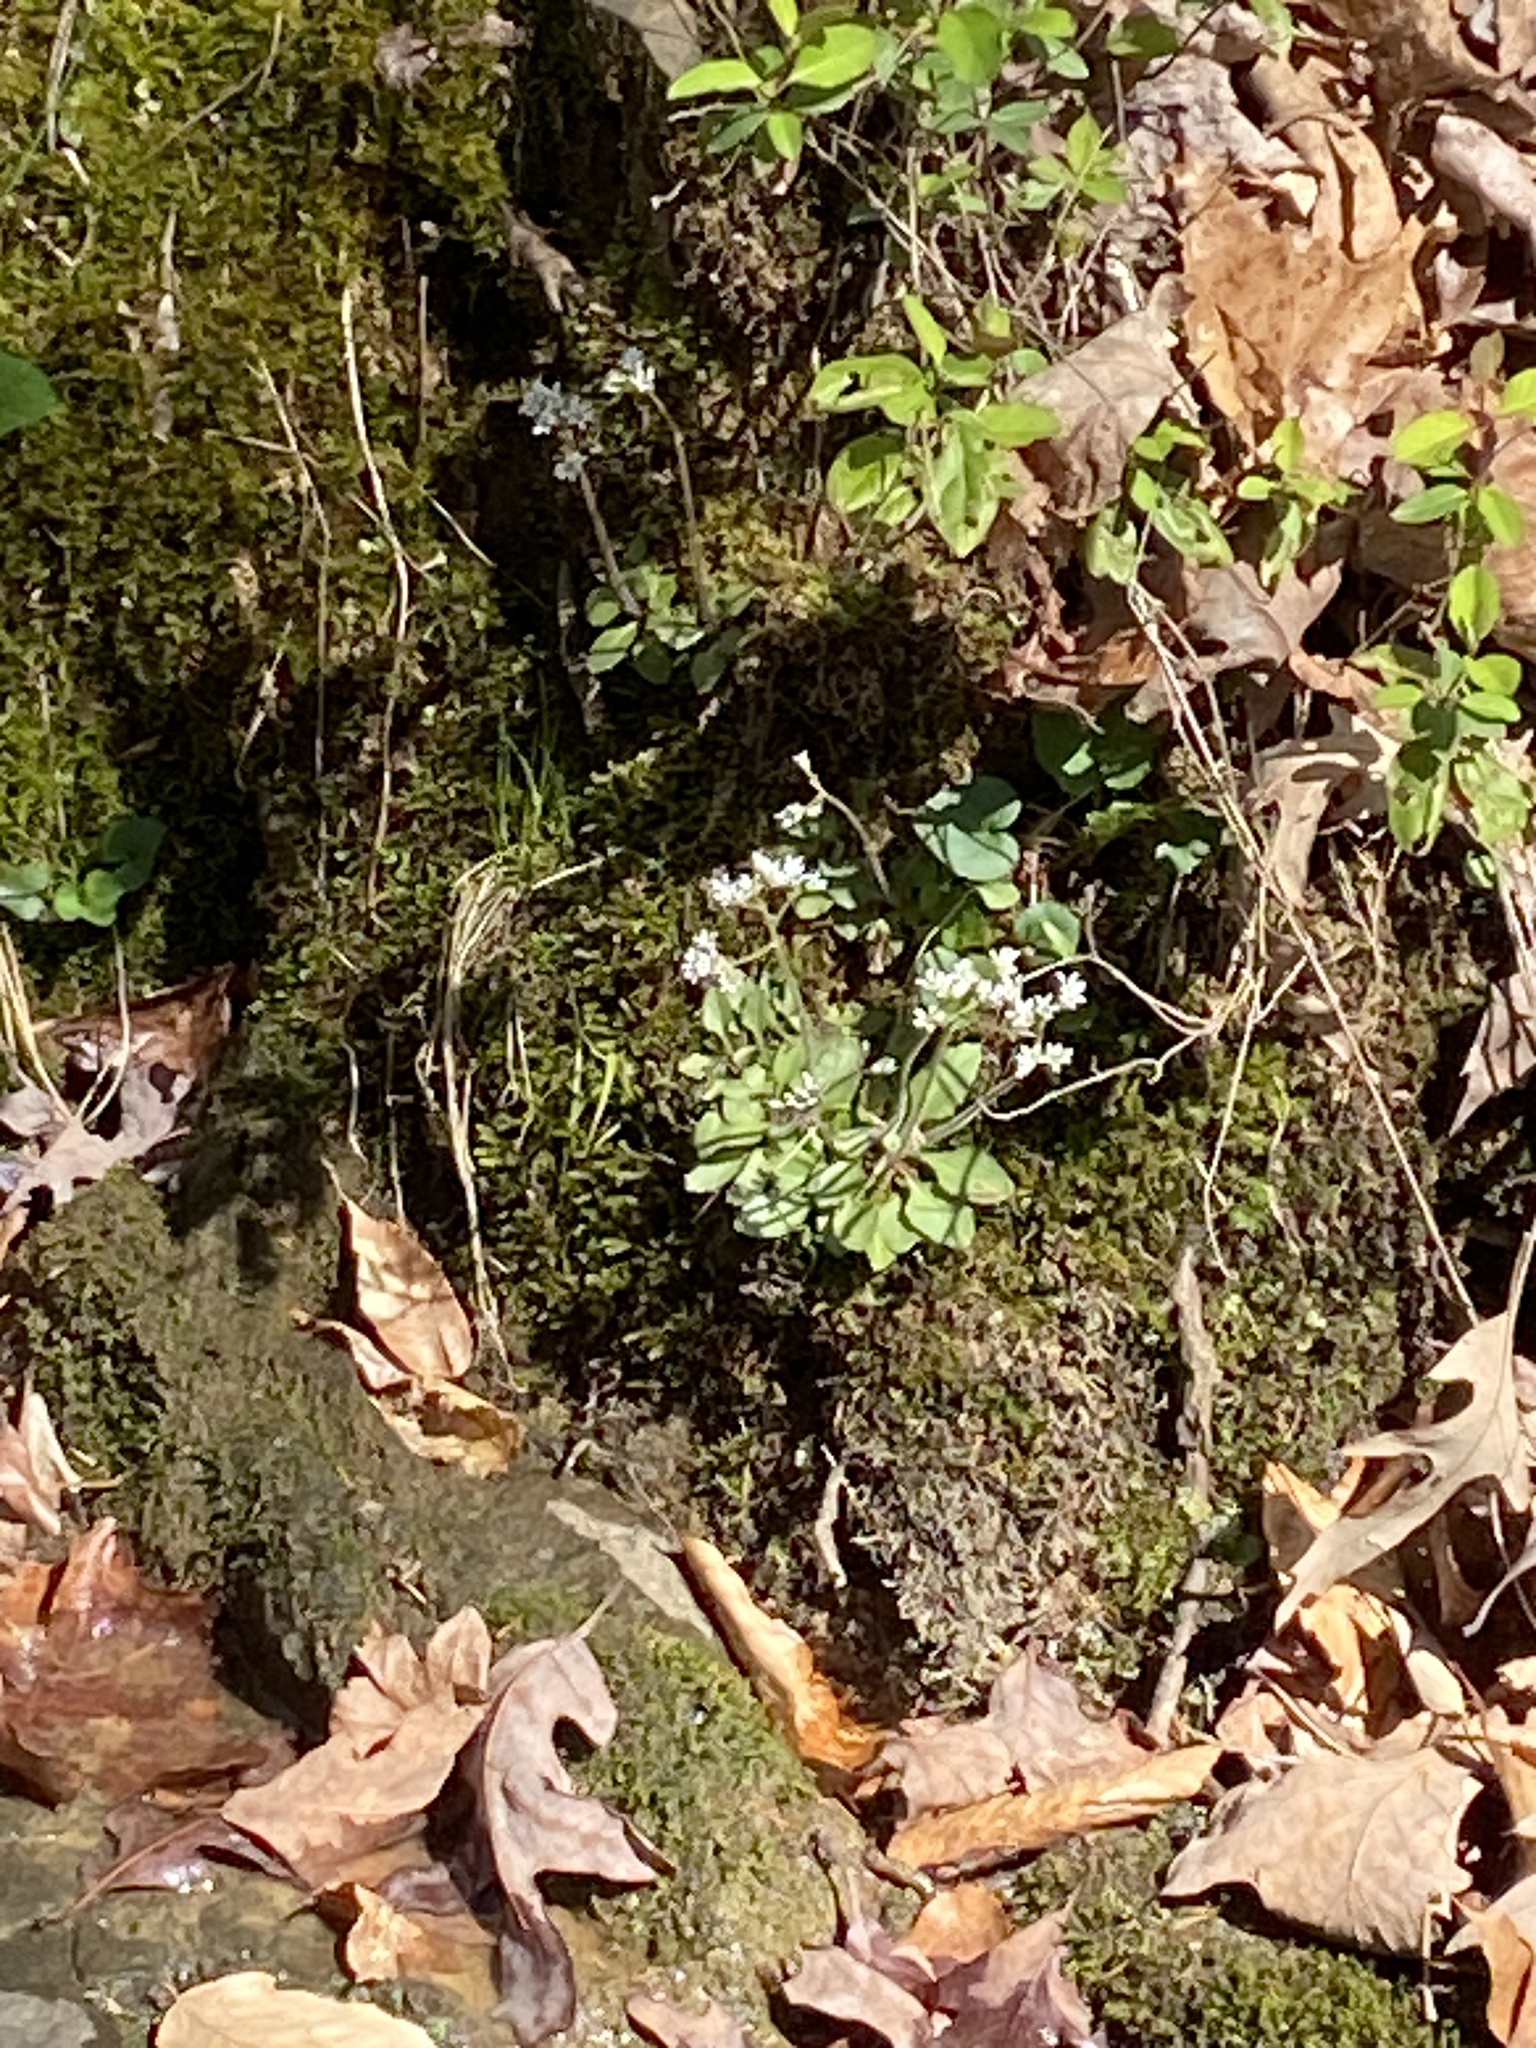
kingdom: Plantae
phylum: Tracheophyta
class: Magnoliopsida
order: Saxifragales
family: Saxifragaceae
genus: Micranthes
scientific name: Micranthes virginiensis
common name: Early saxifrage
